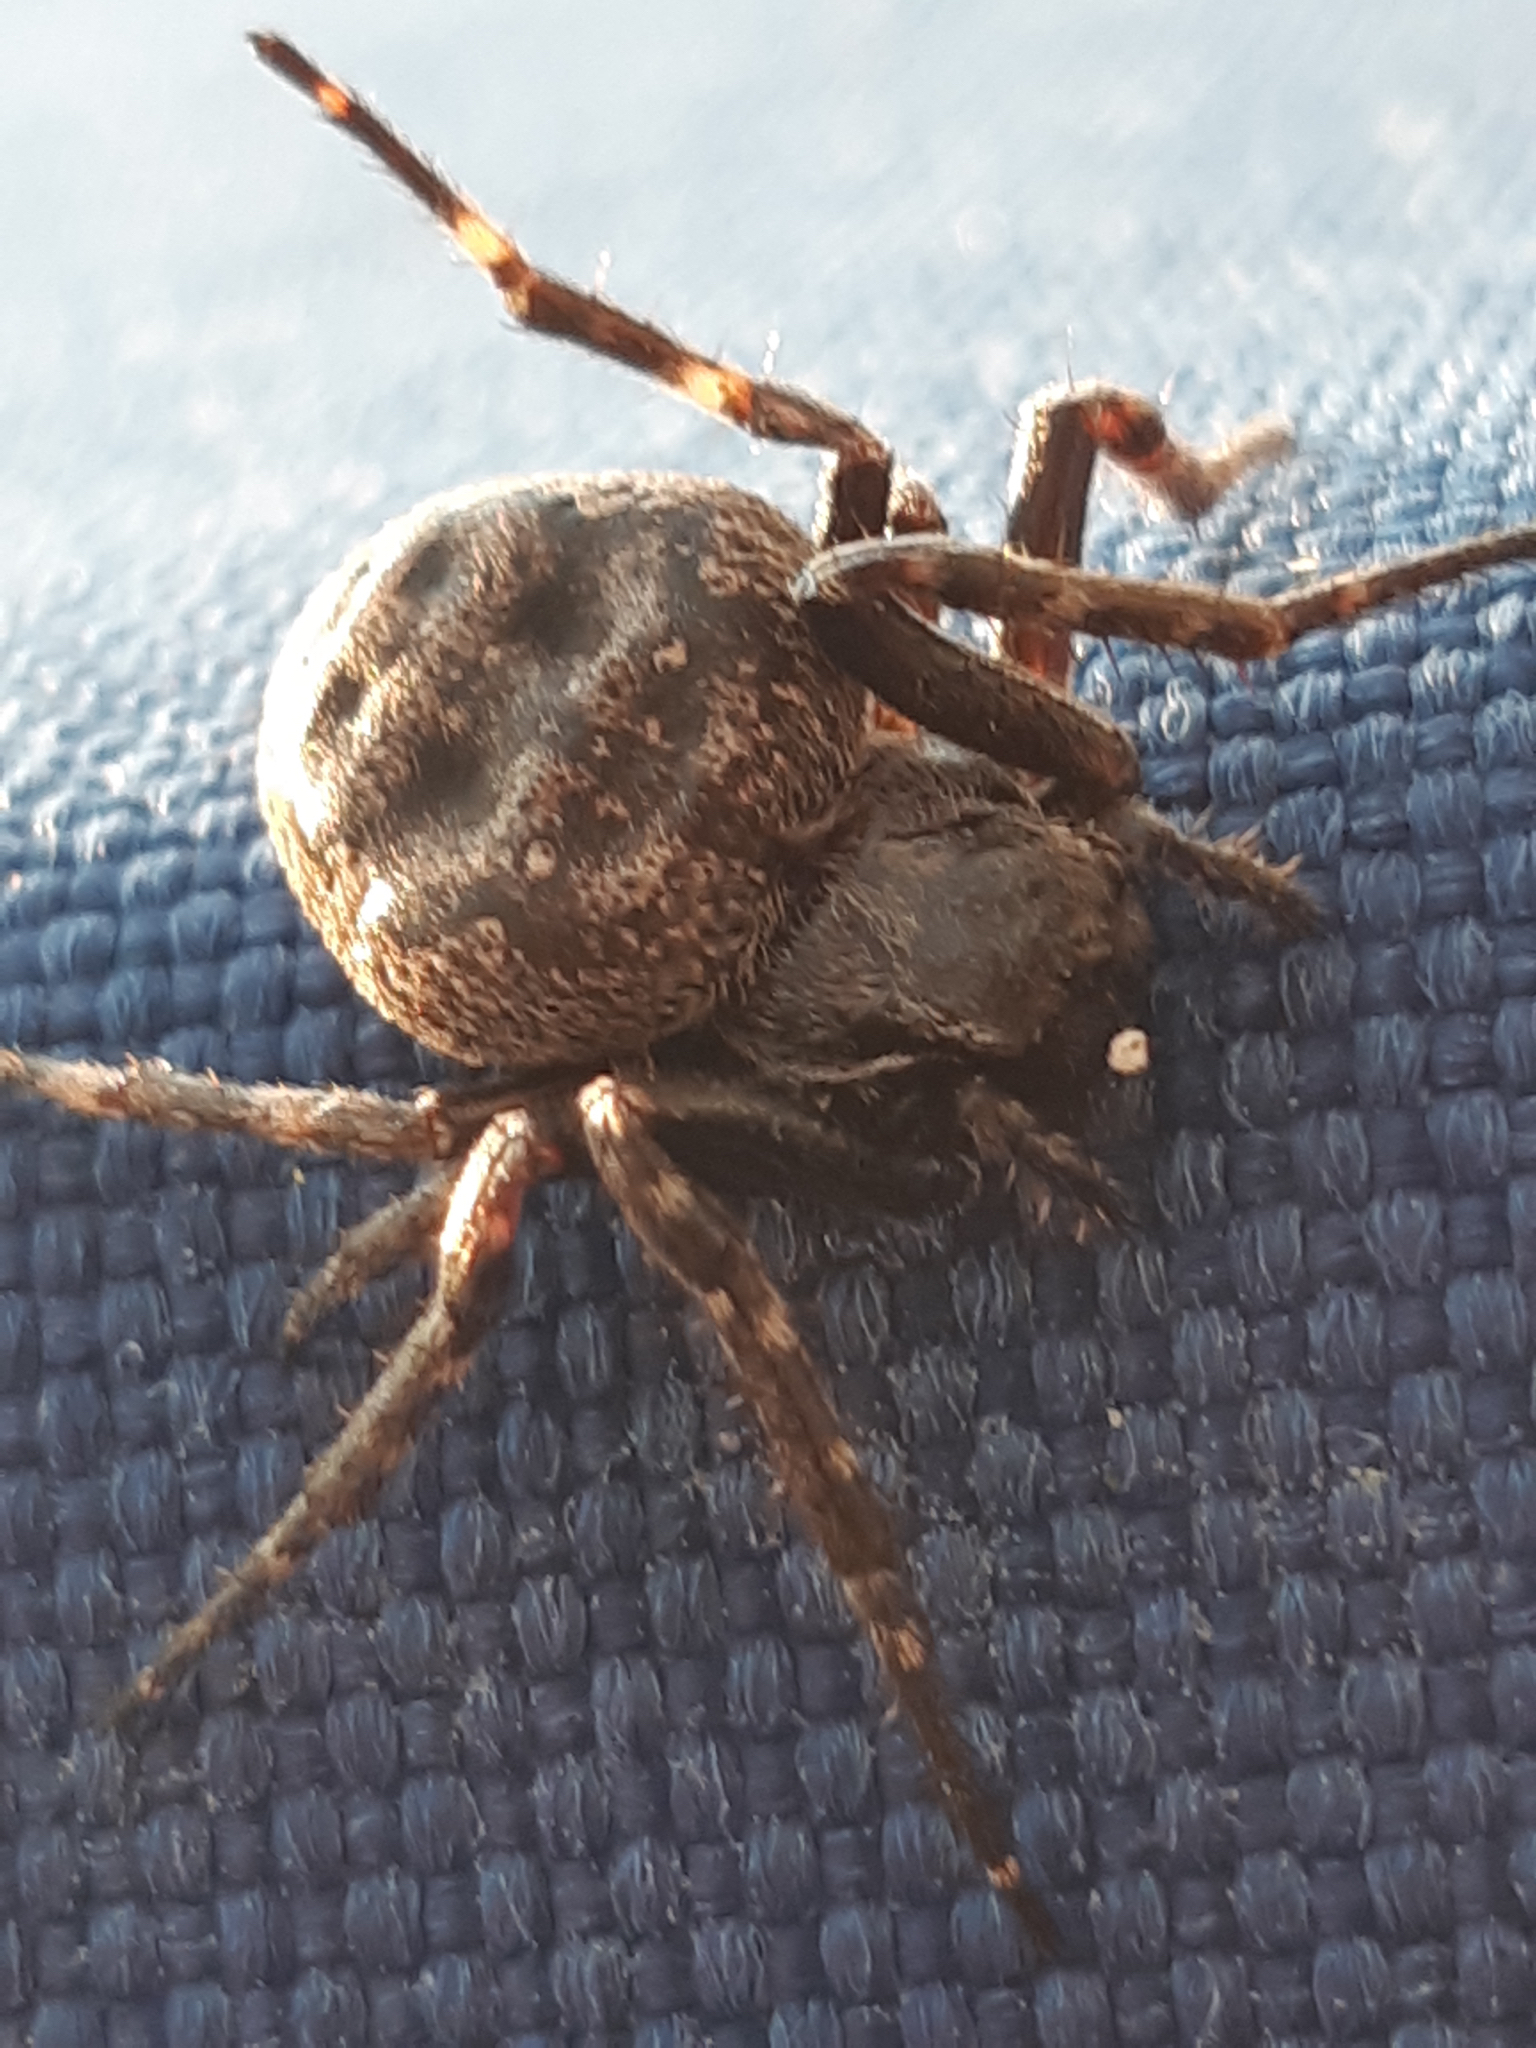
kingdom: Animalia
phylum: Arthropoda
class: Arachnida
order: Araneae
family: Araneidae
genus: Nuctenea
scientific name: Nuctenea umbratica
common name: Toad spider
